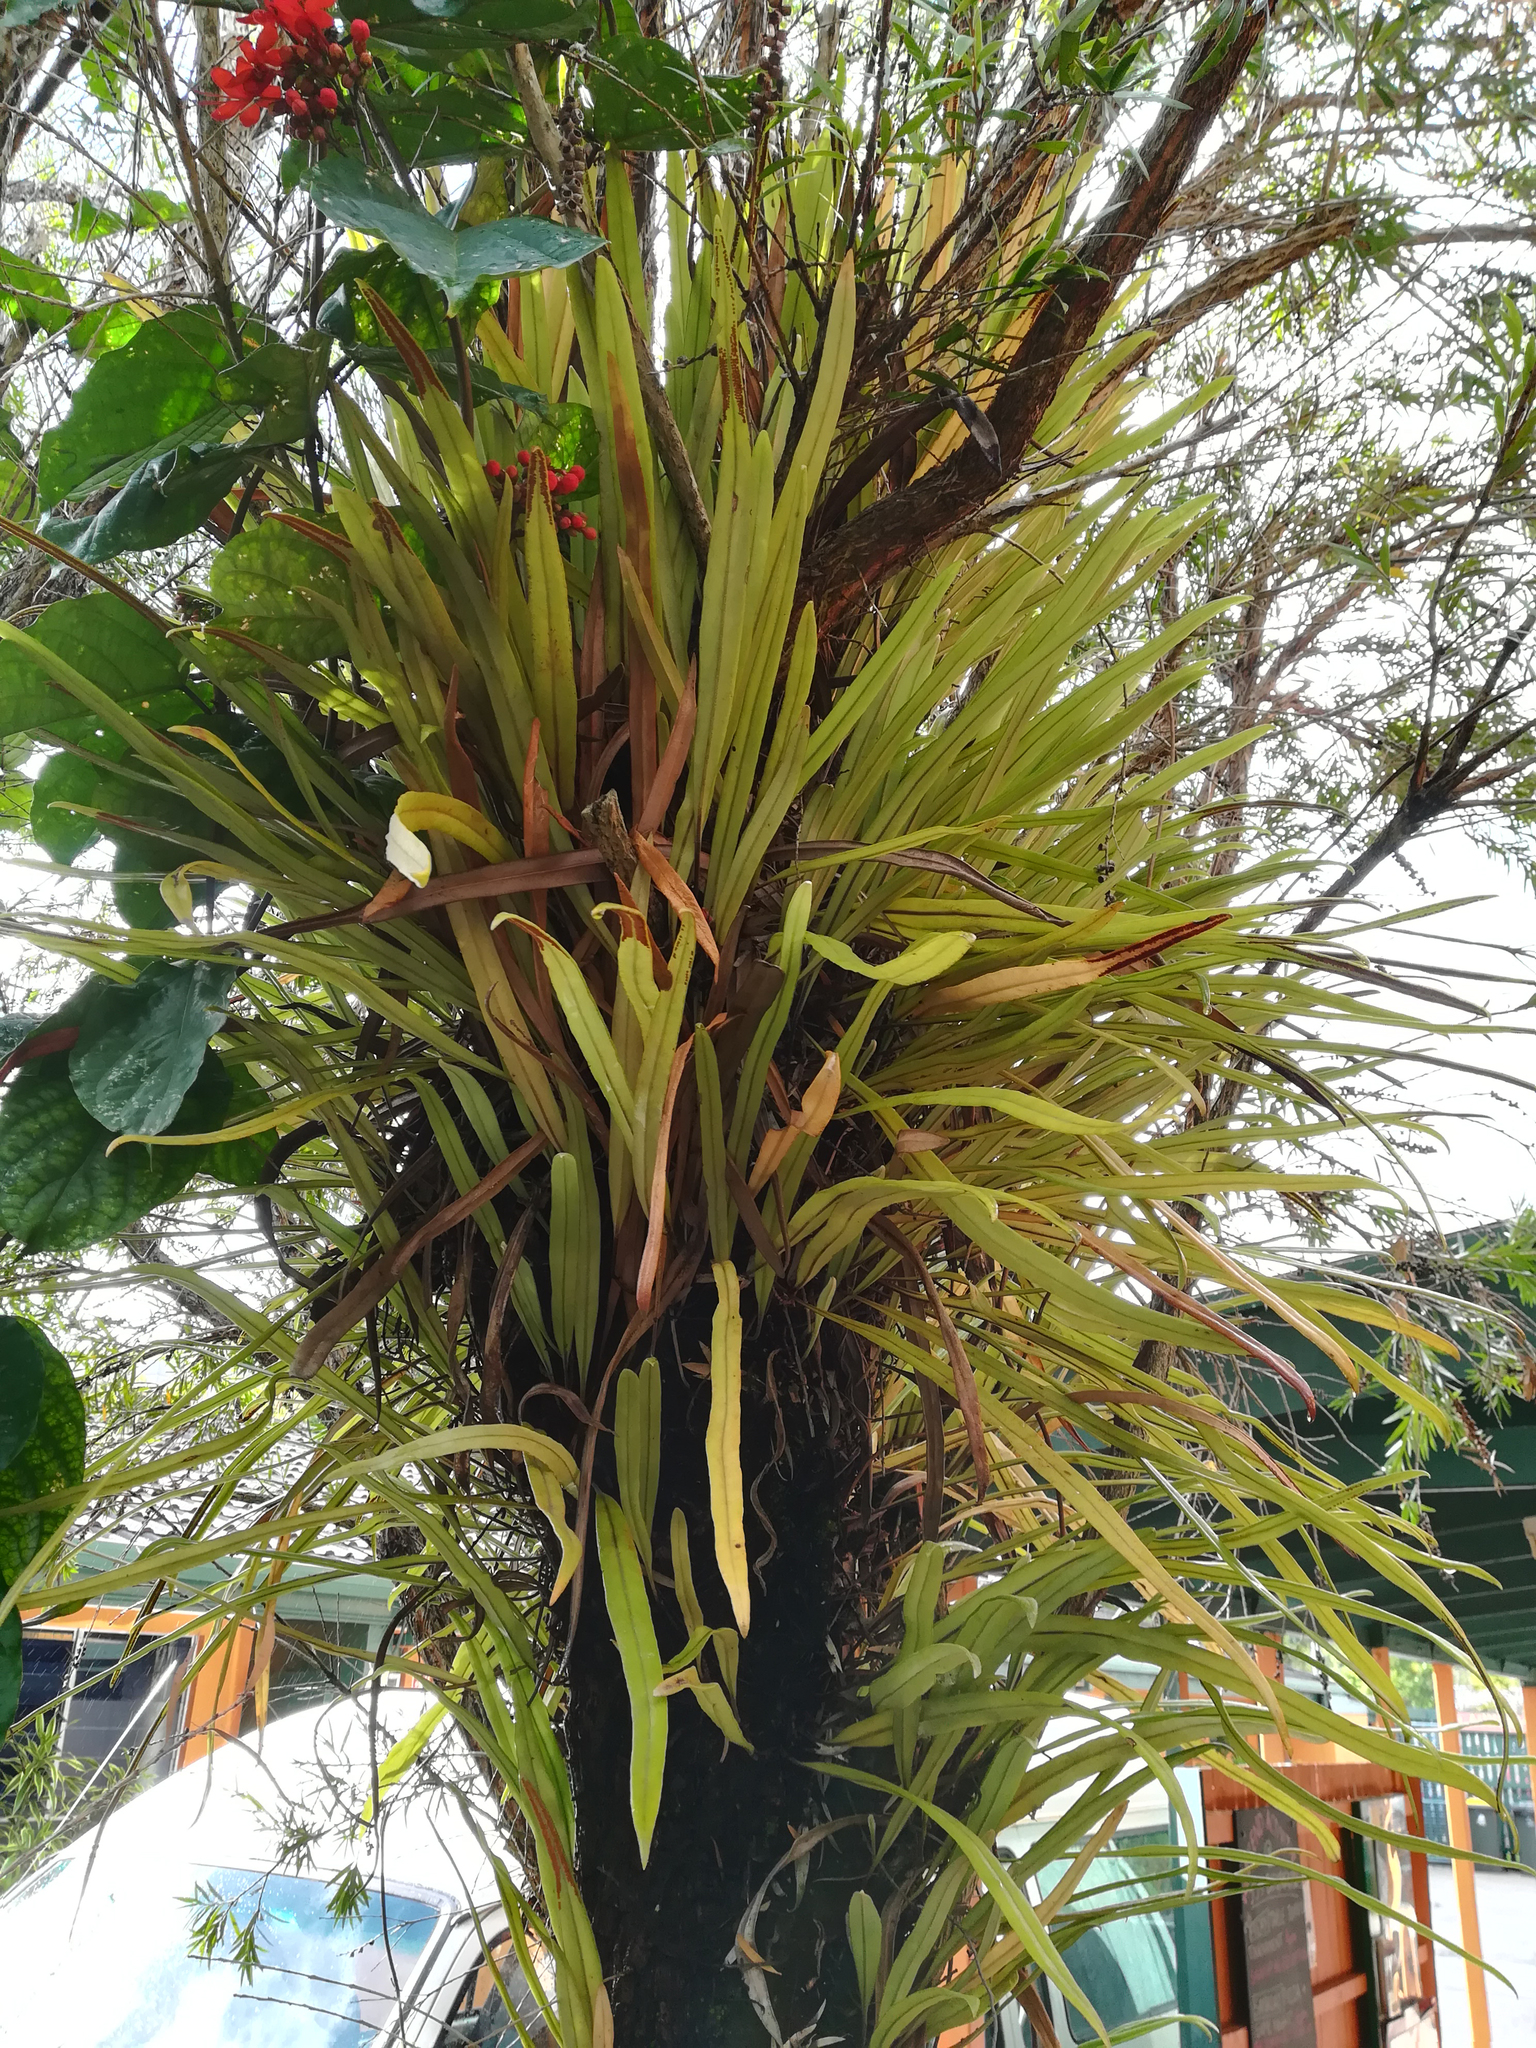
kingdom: Plantae
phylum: Tracheophyta
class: Polypodiopsida
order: Polypodiales
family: Polypodiaceae
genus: Pyrrosia
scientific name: Pyrrosia longifolia
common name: Long-leaved felt fern
